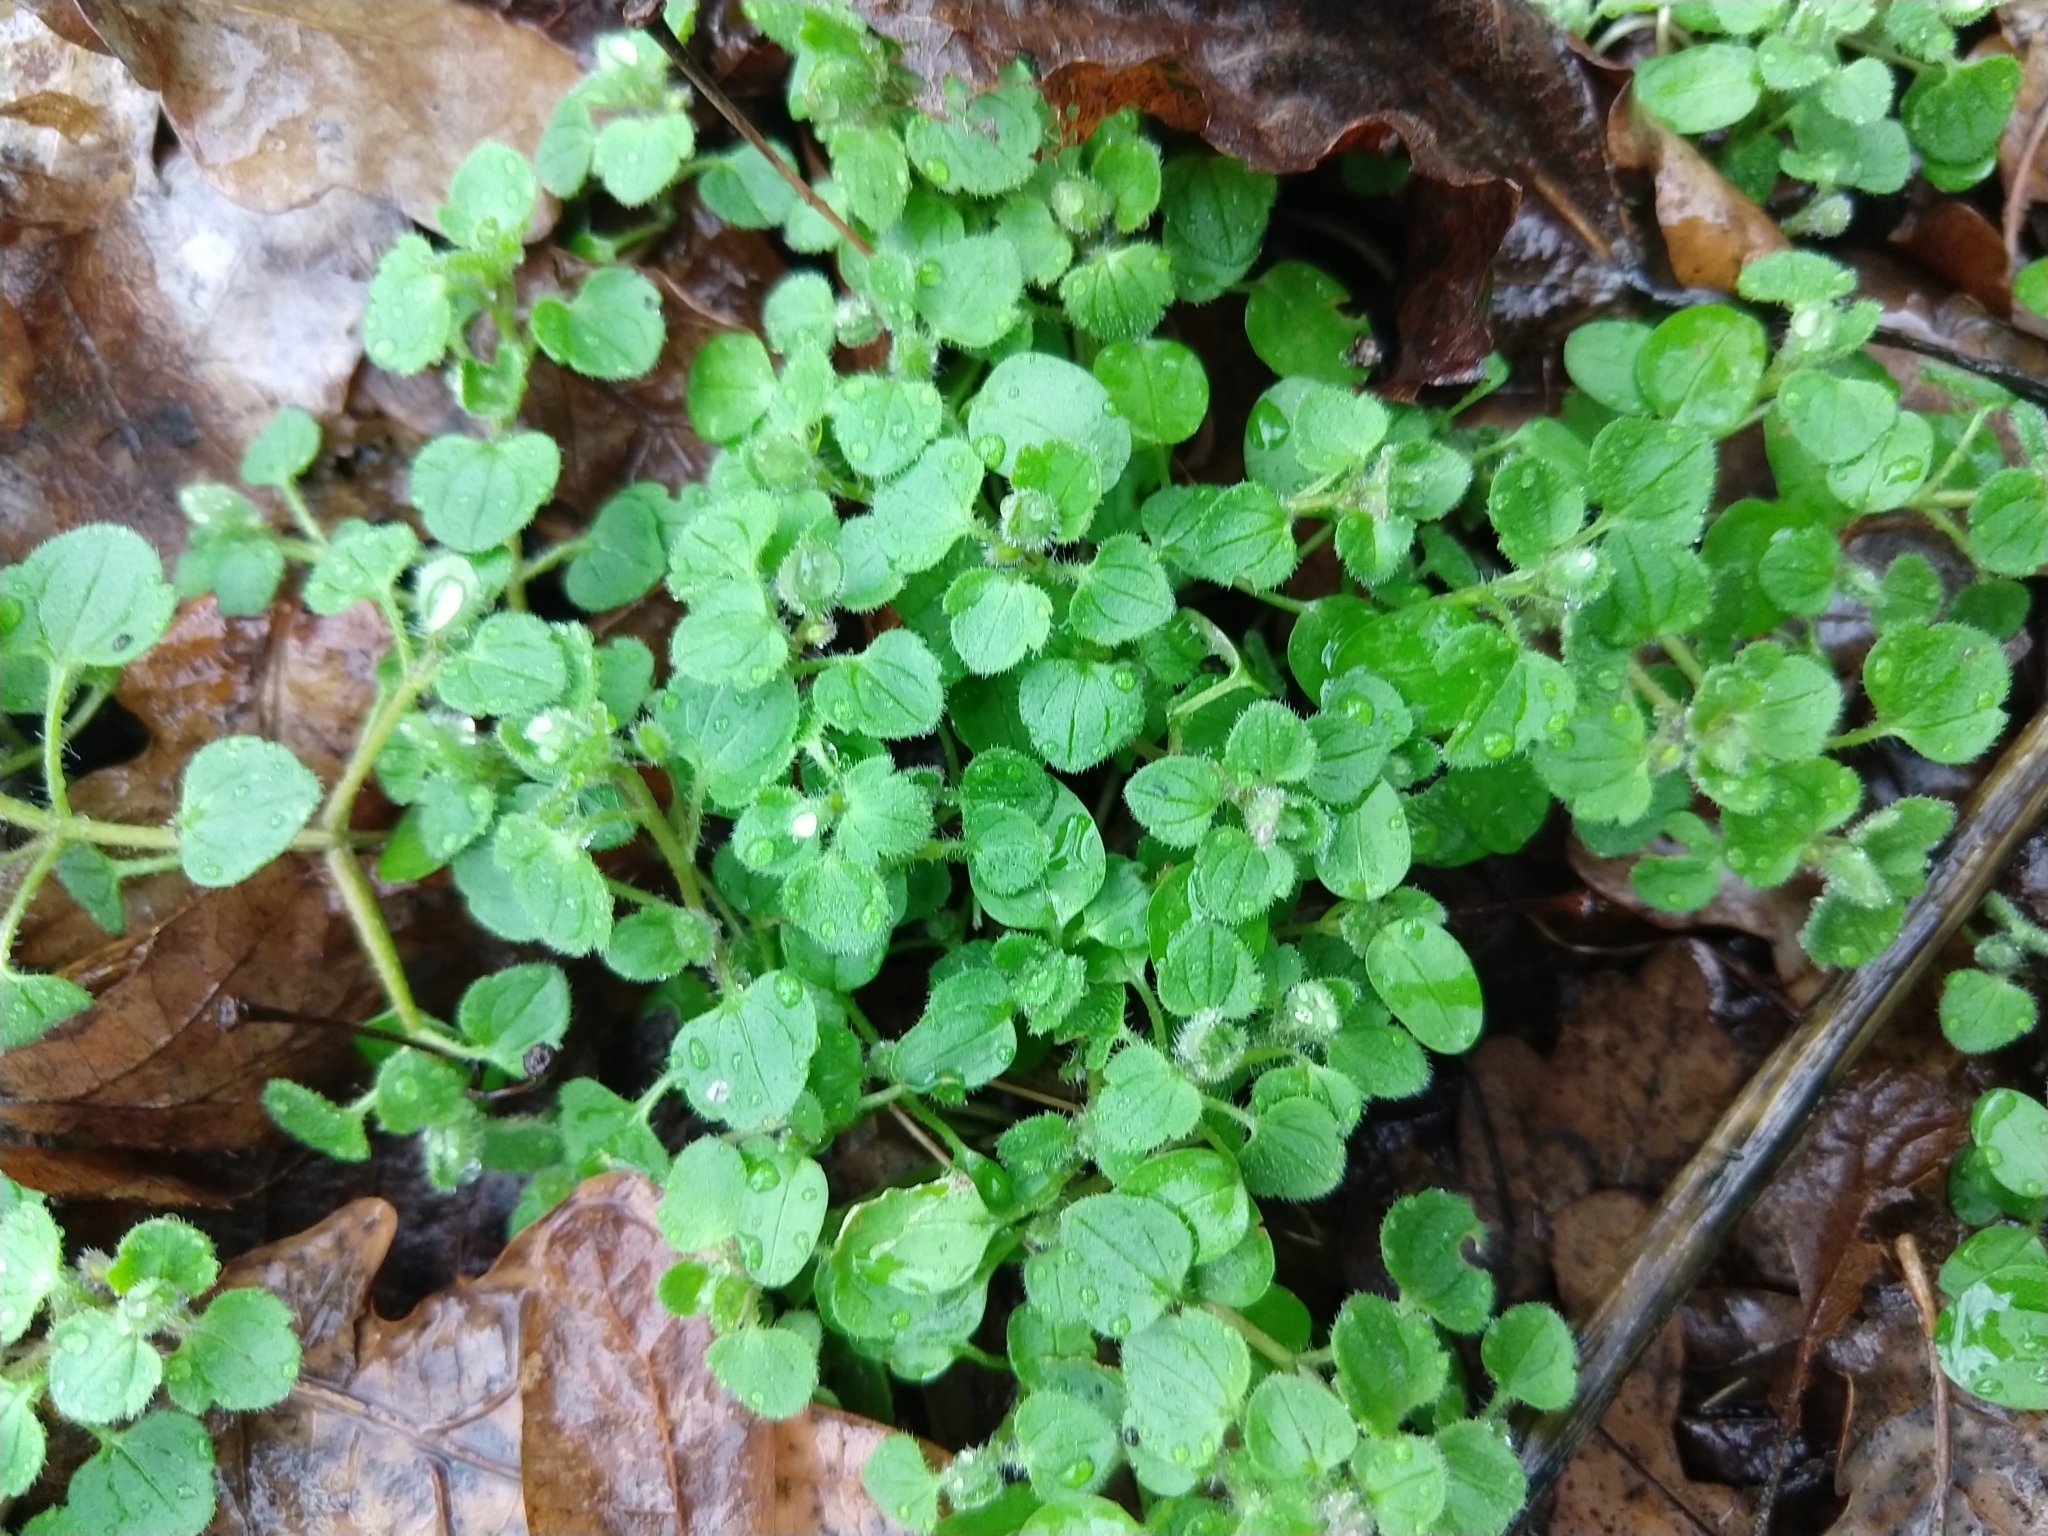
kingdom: Plantae
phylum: Tracheophyta
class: Magnoliopsida
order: Lamiales
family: Plantaginaceae
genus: Veronica
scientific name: Veronica hederifolia
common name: Ivy-leaved speedwell
